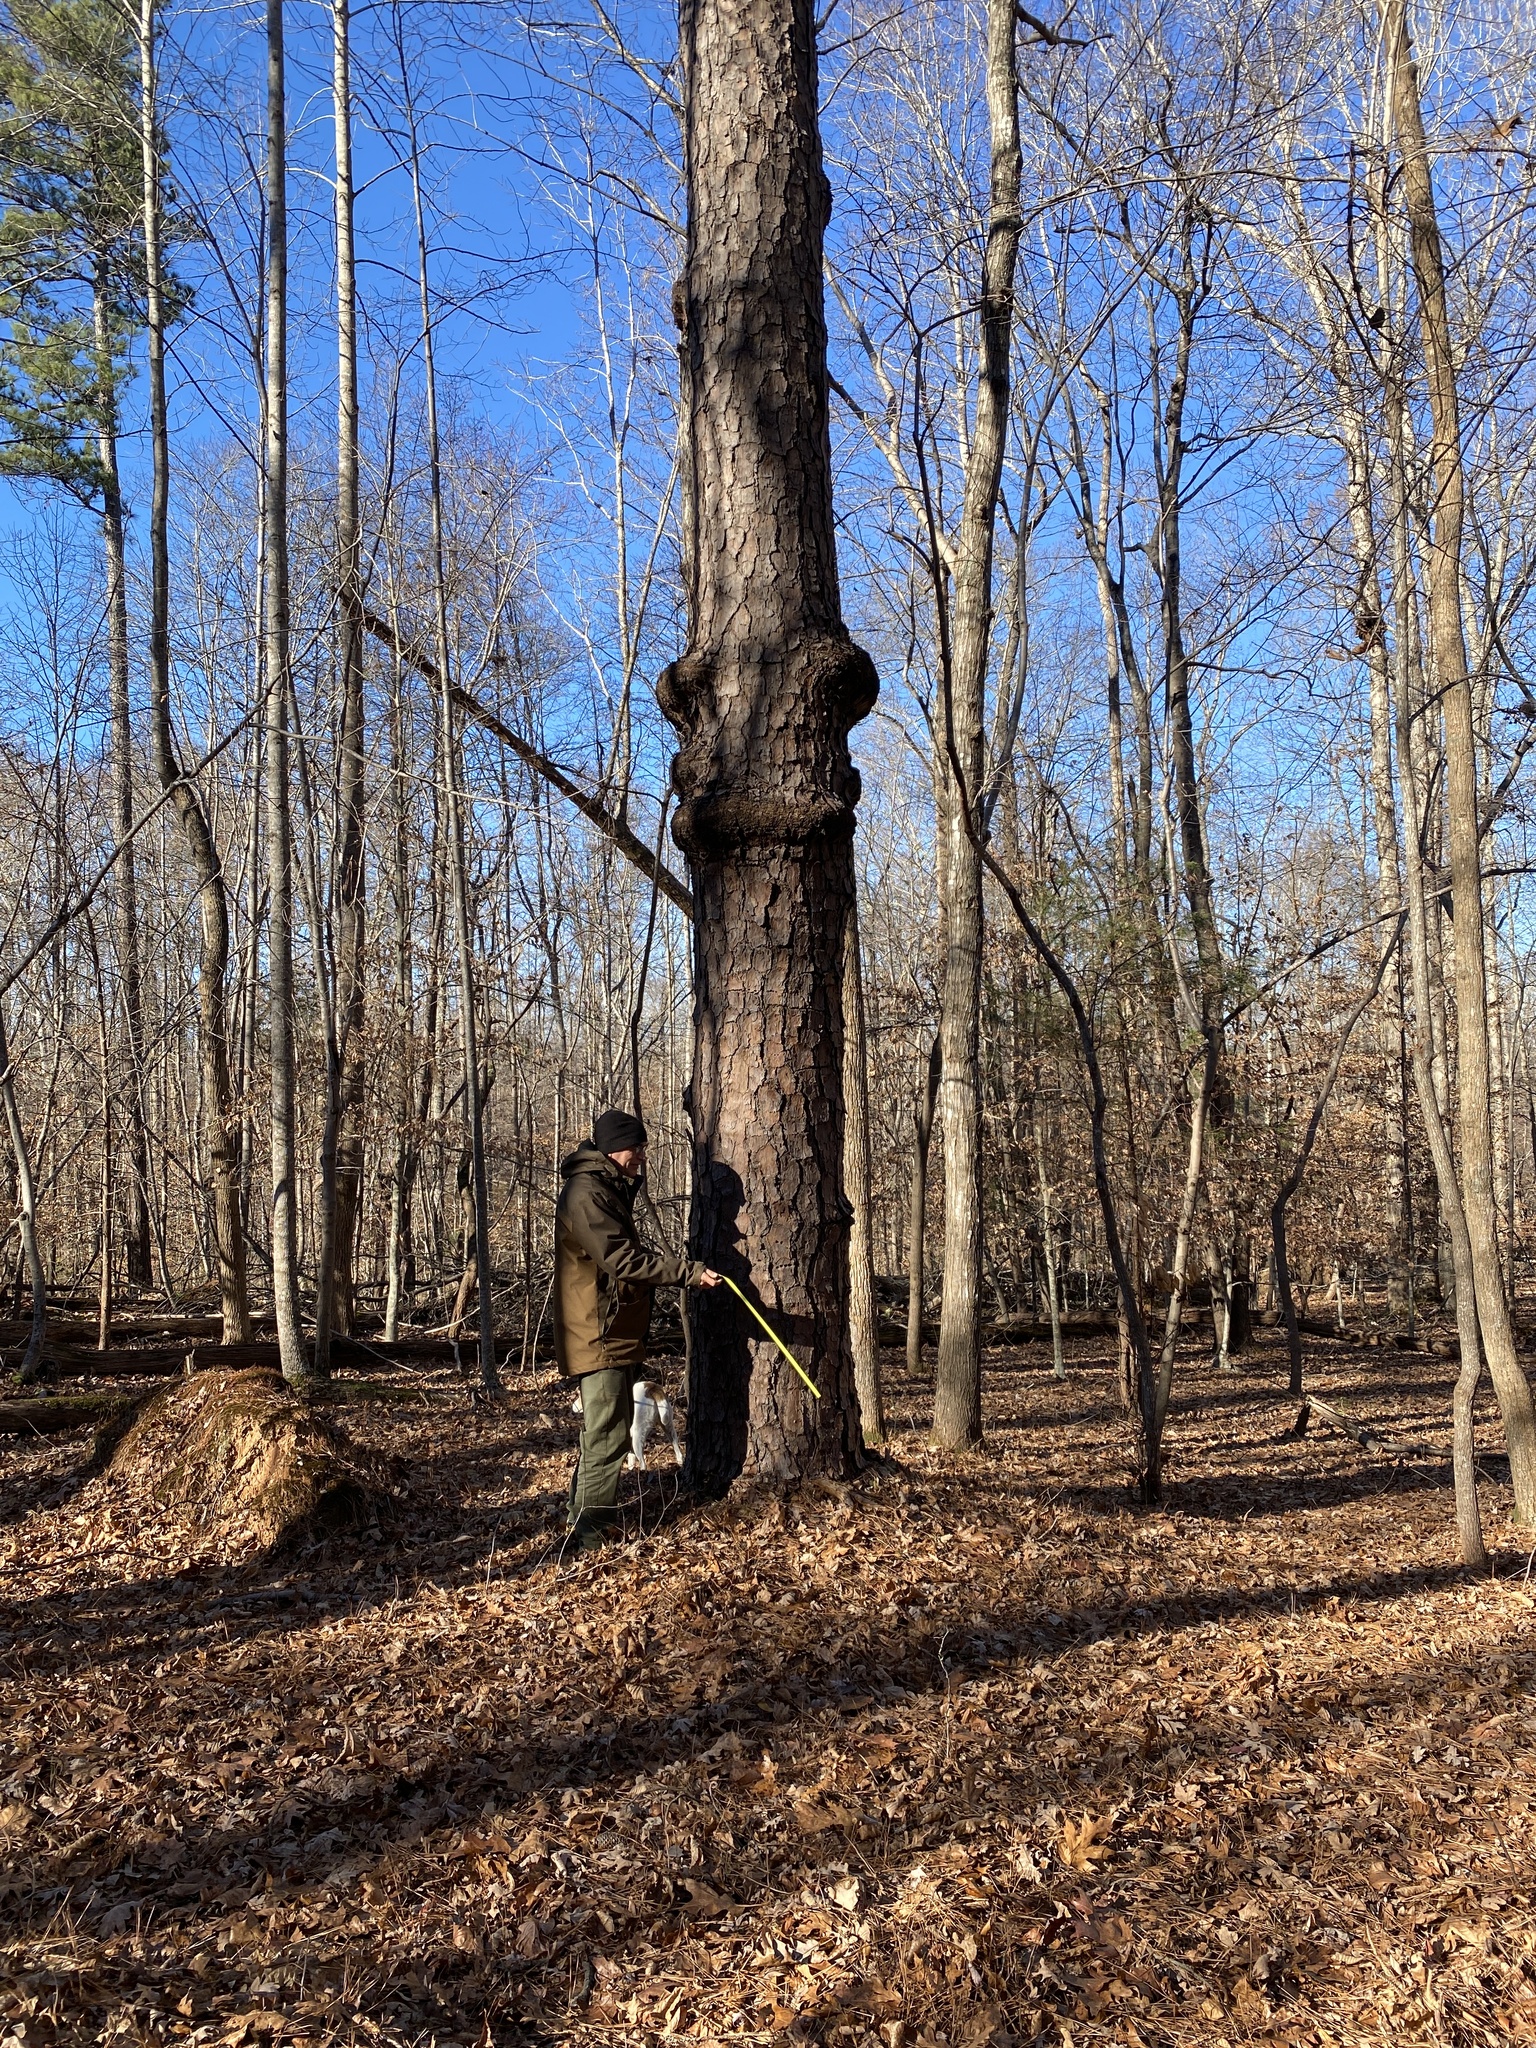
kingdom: Plantae
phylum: Tracheophyta
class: Pinopsida
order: Pinales
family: Pinaceae
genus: Pinus
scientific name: Pinus taeda
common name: Loblolly pine
